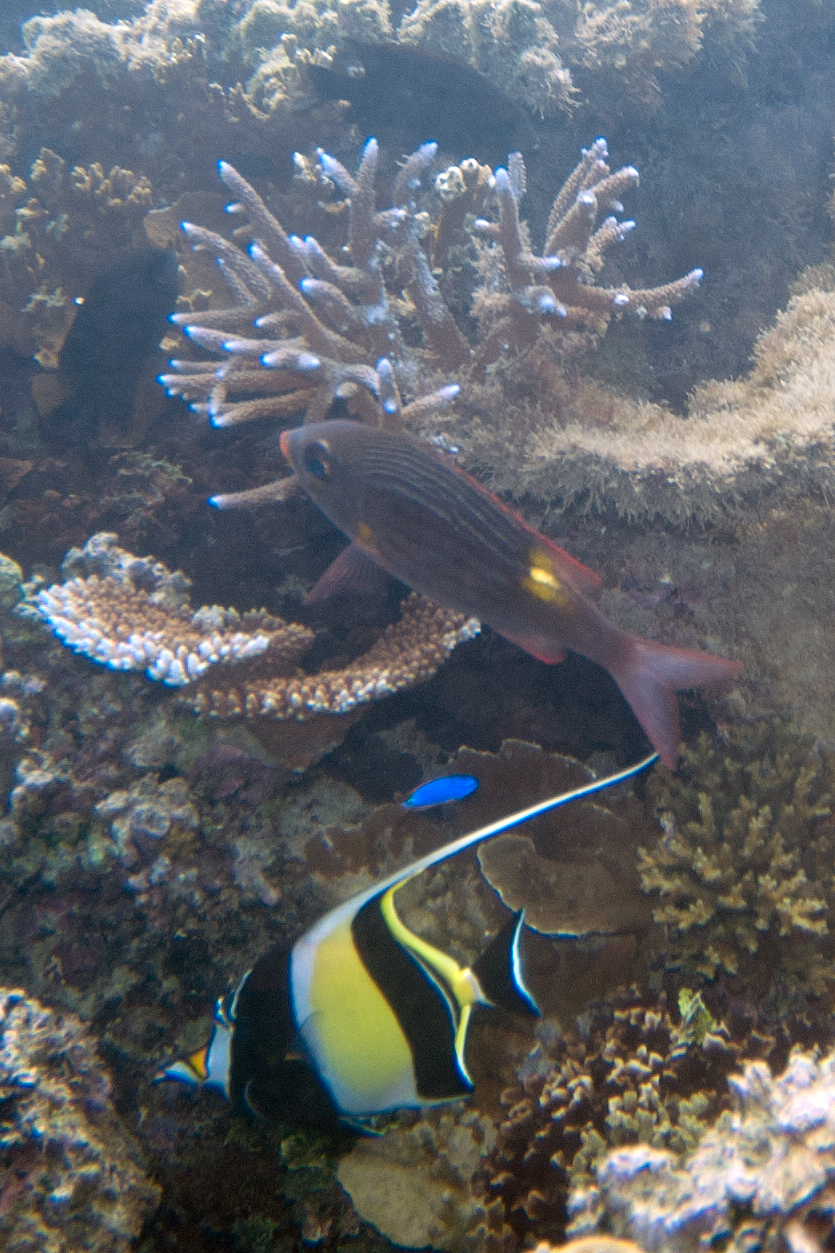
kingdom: Animalia
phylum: Chordata
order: Perciformes
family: Lethrinidae
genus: Gnathodentex
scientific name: Gnathodentex aureolineatus
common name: Gold-lined sea bream
